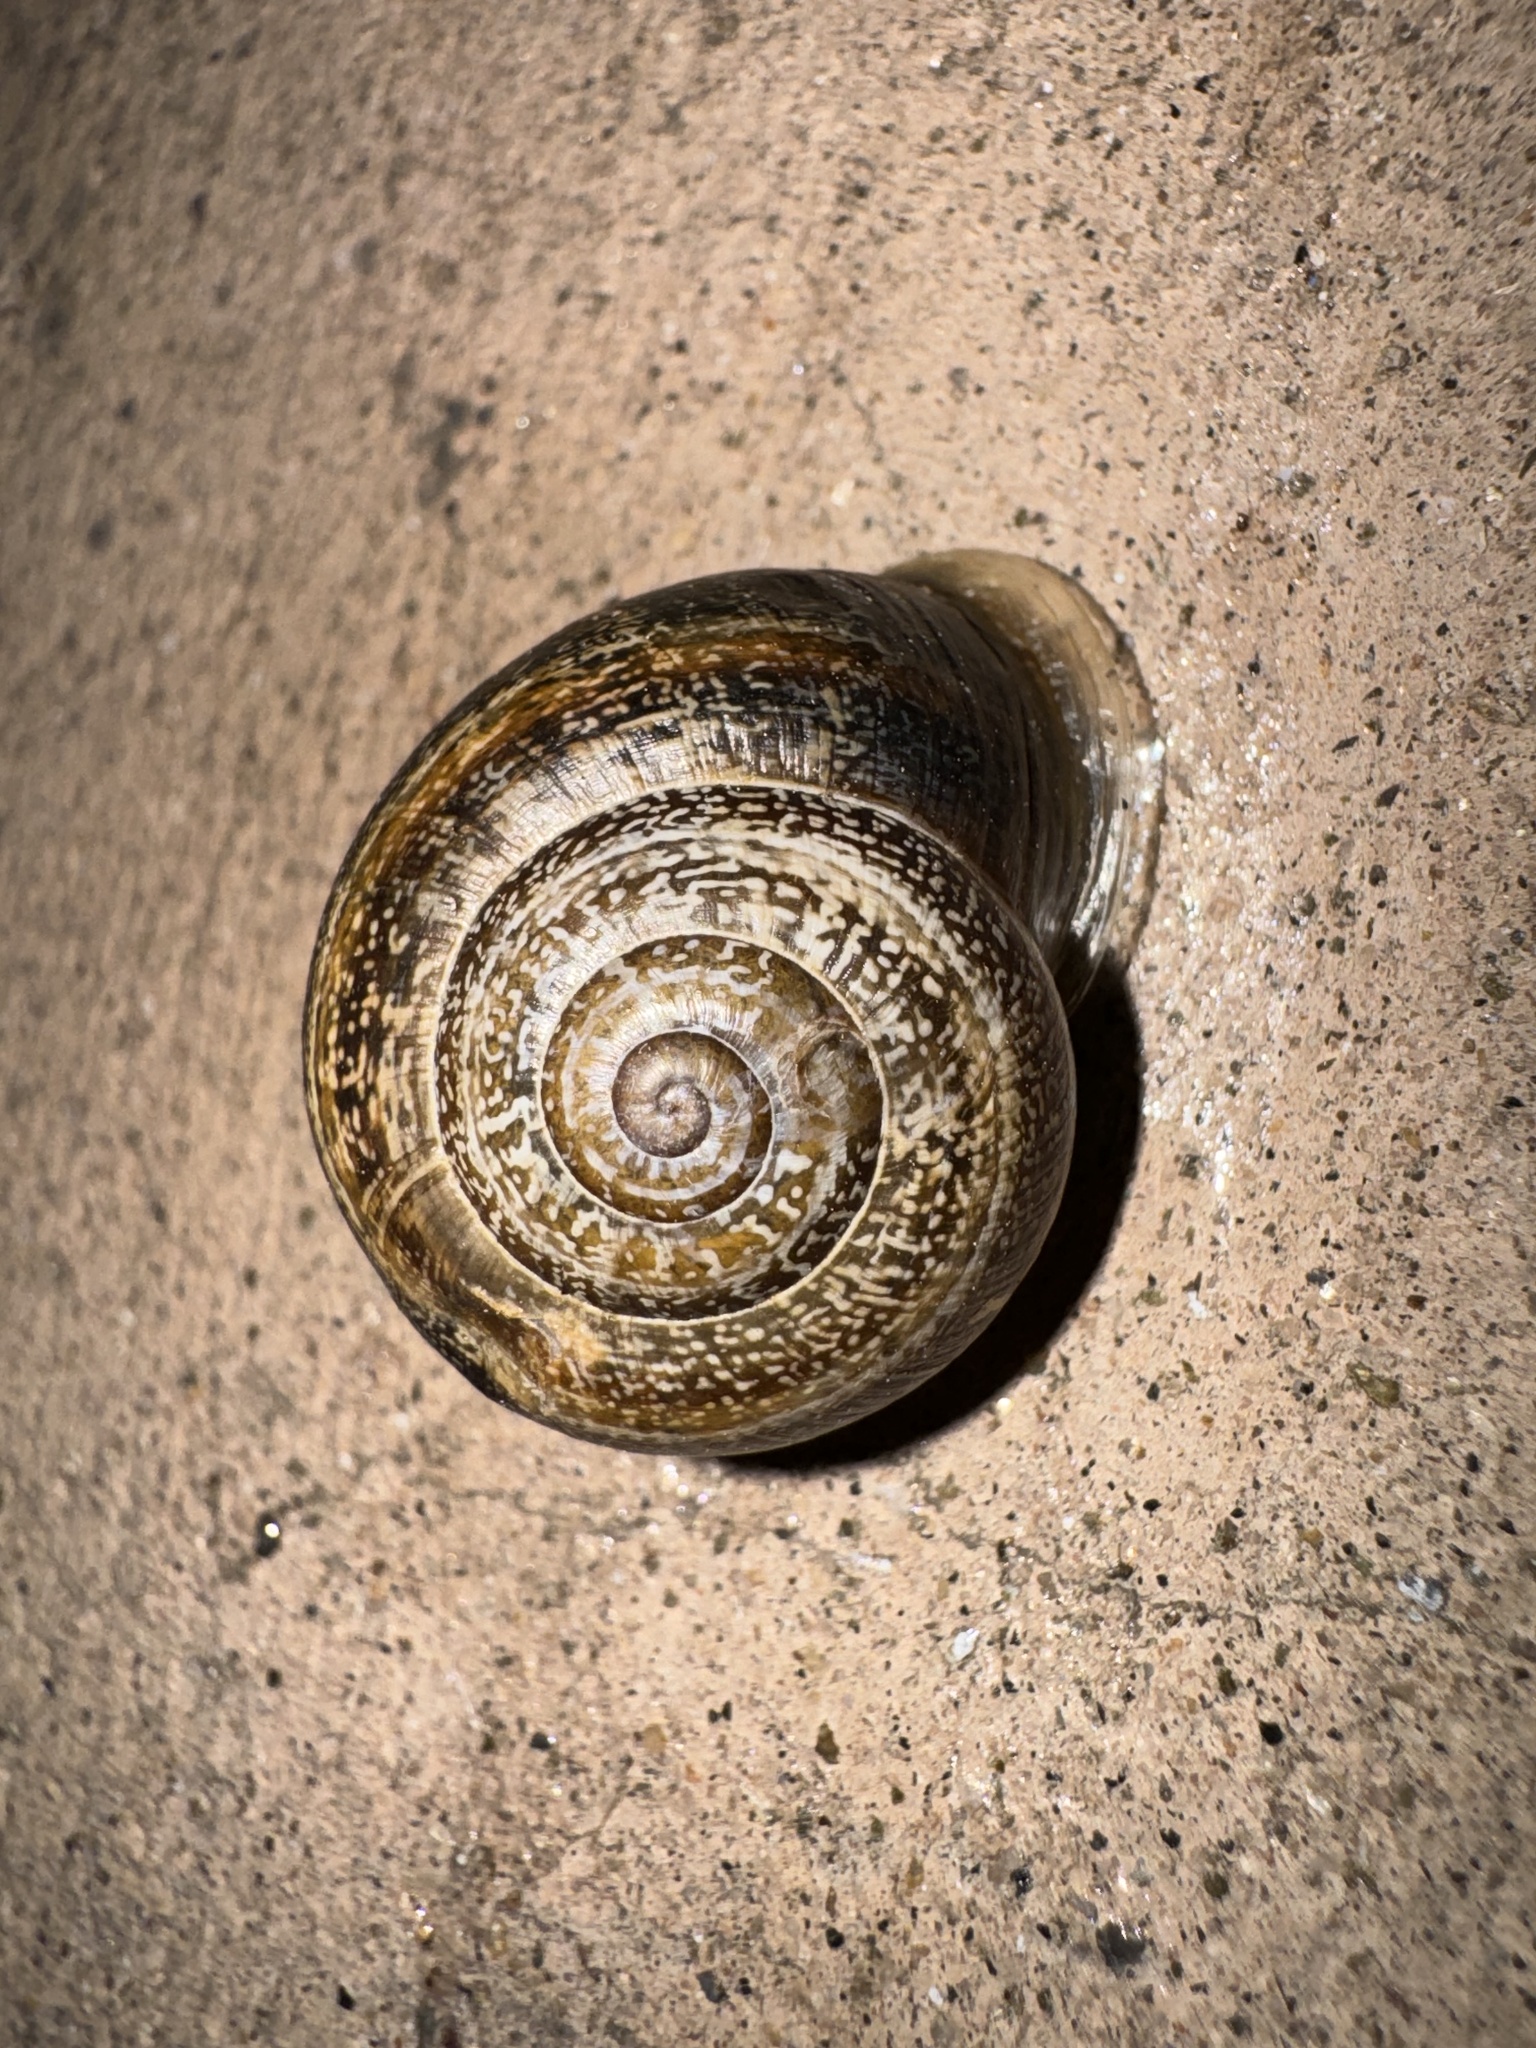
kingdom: Animalia
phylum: Mollusca
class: Gastropoda
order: Stylommatophora
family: Helicidae
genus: Otala
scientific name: Otala lactea
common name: Milk snail
